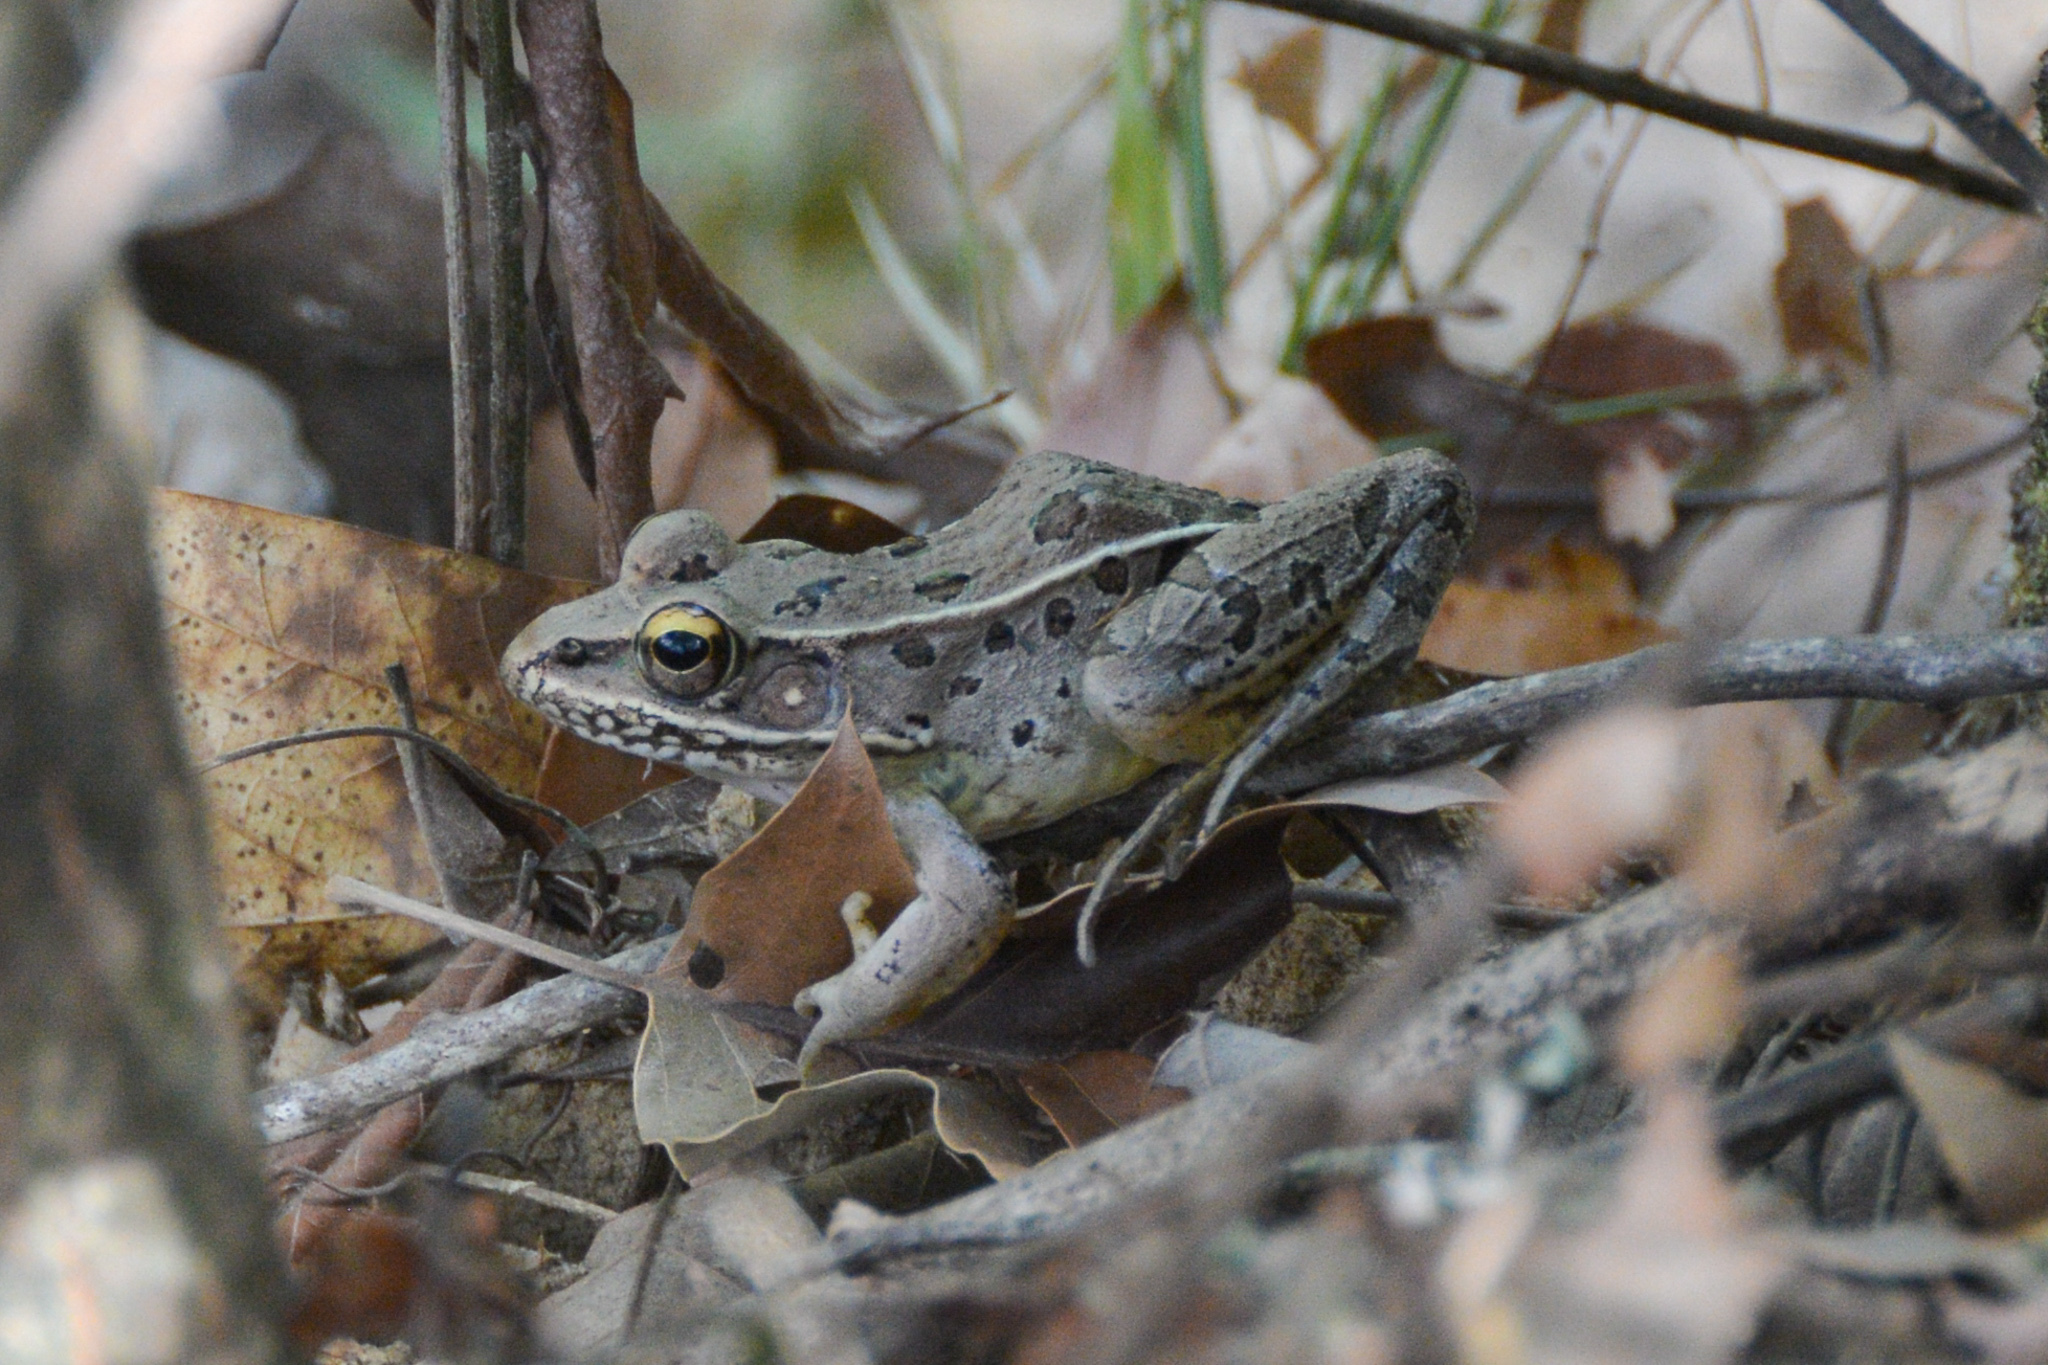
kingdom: Animalia
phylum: Chordata
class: Amphibia
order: Anura
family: Ranidae
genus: Lithobates
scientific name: Lithobates sphenocephalus
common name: Southern leopard frog
